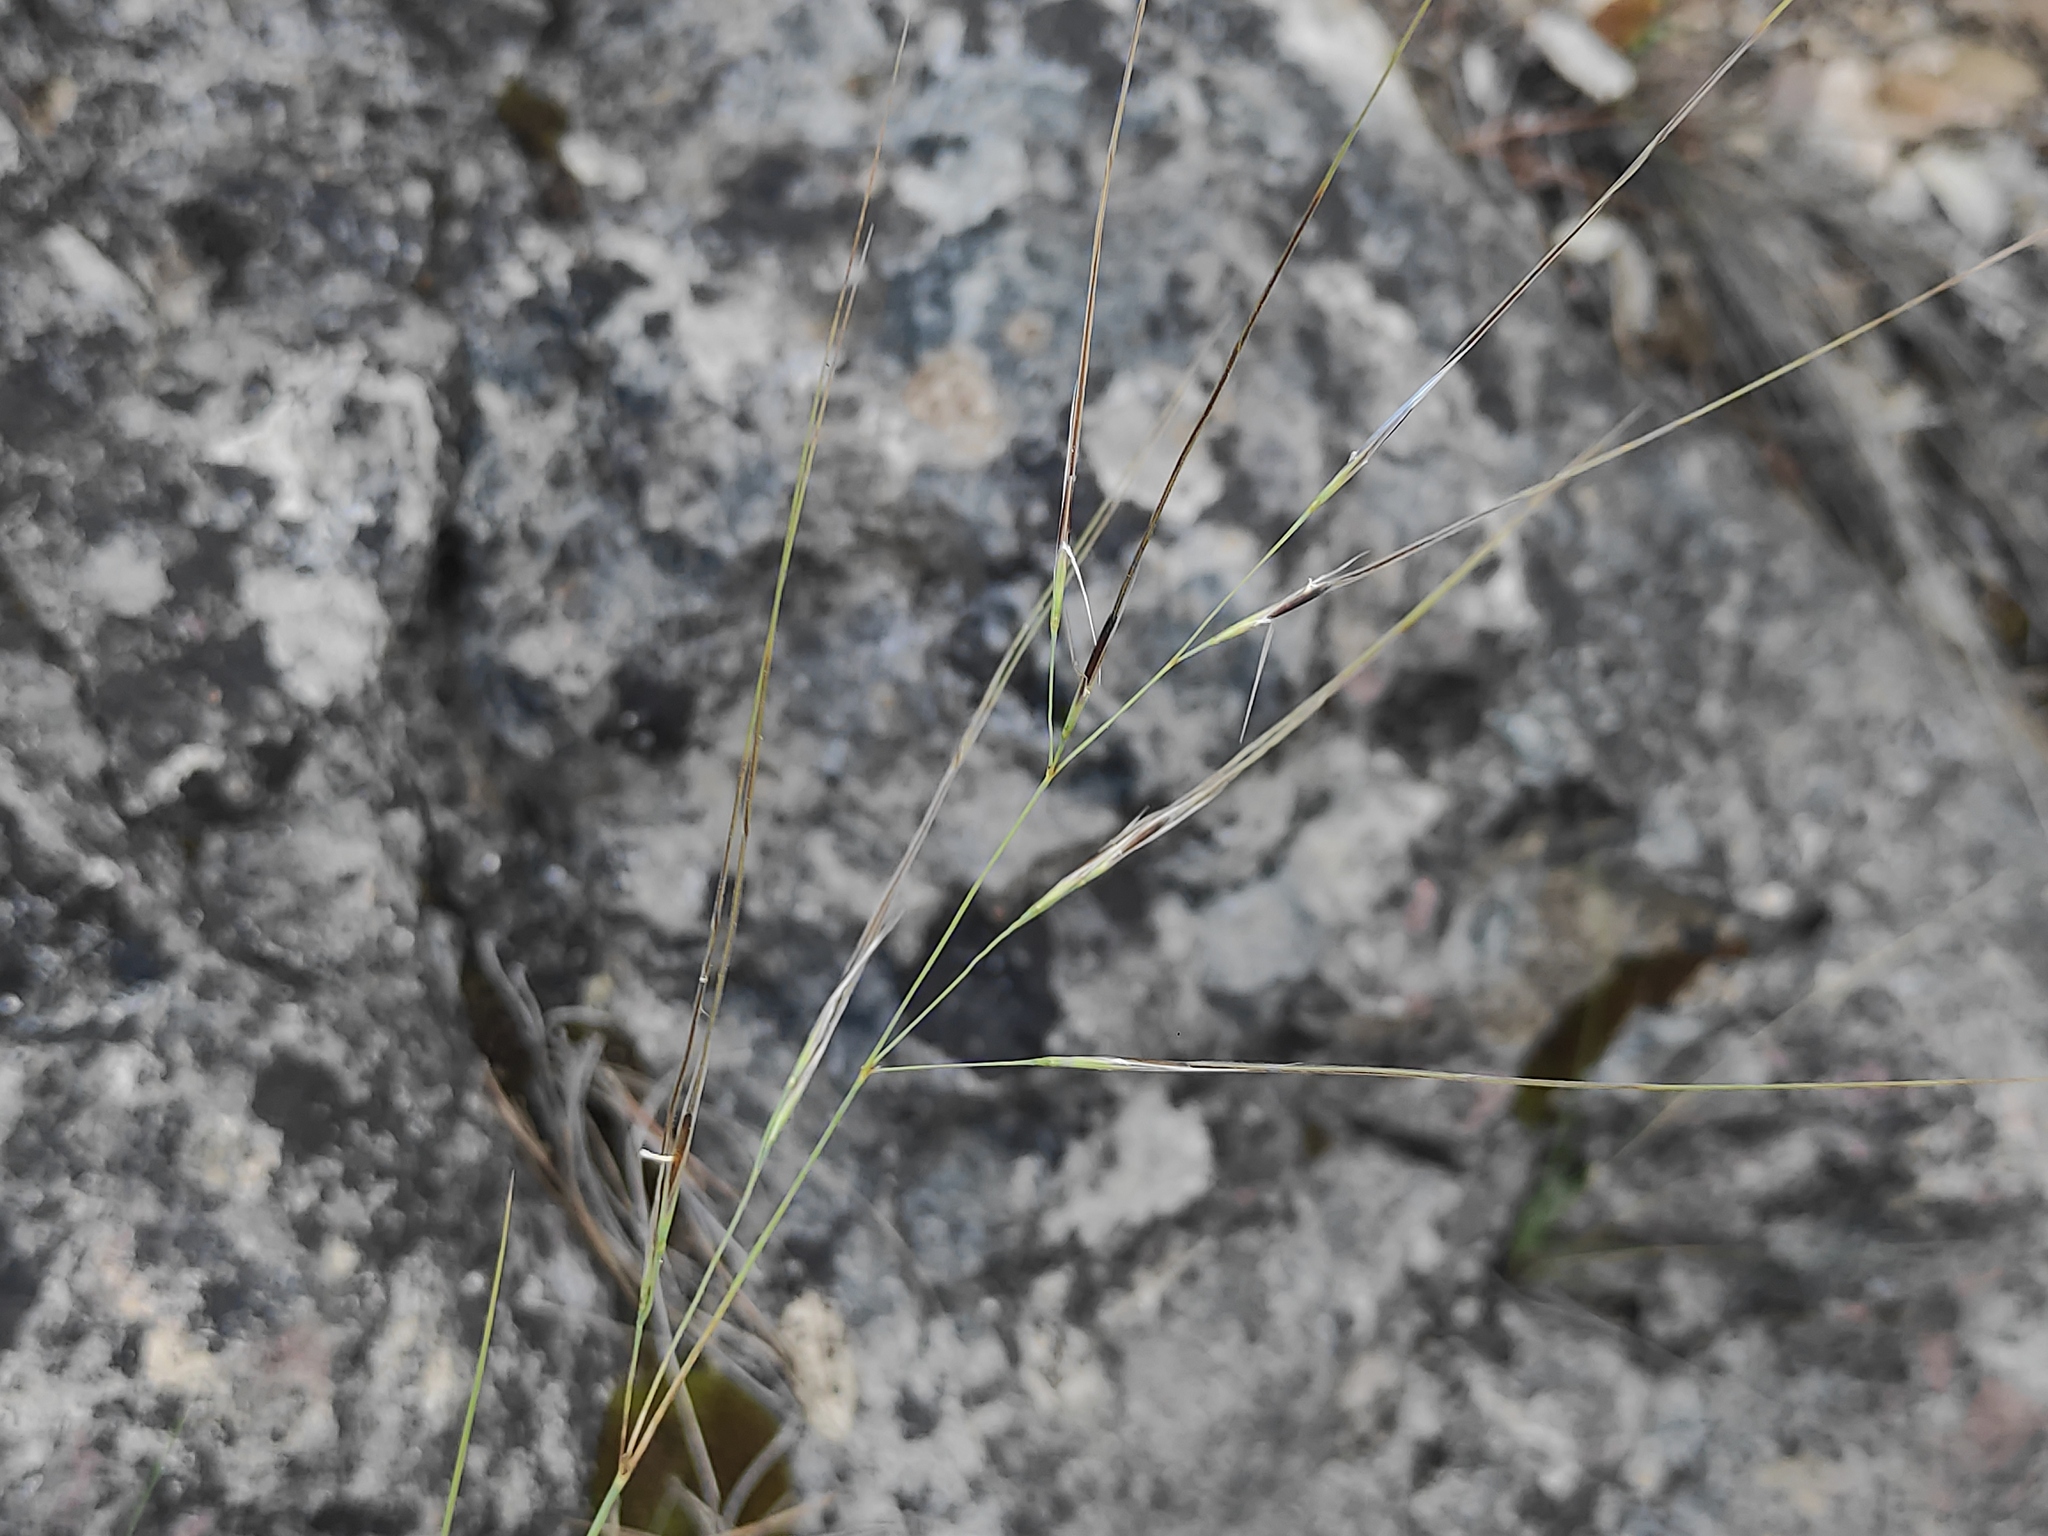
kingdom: Plantae
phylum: Tracheophyta
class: Liliopsida
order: Poales
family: Poaceae
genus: Stipa
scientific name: Stipa offneri
